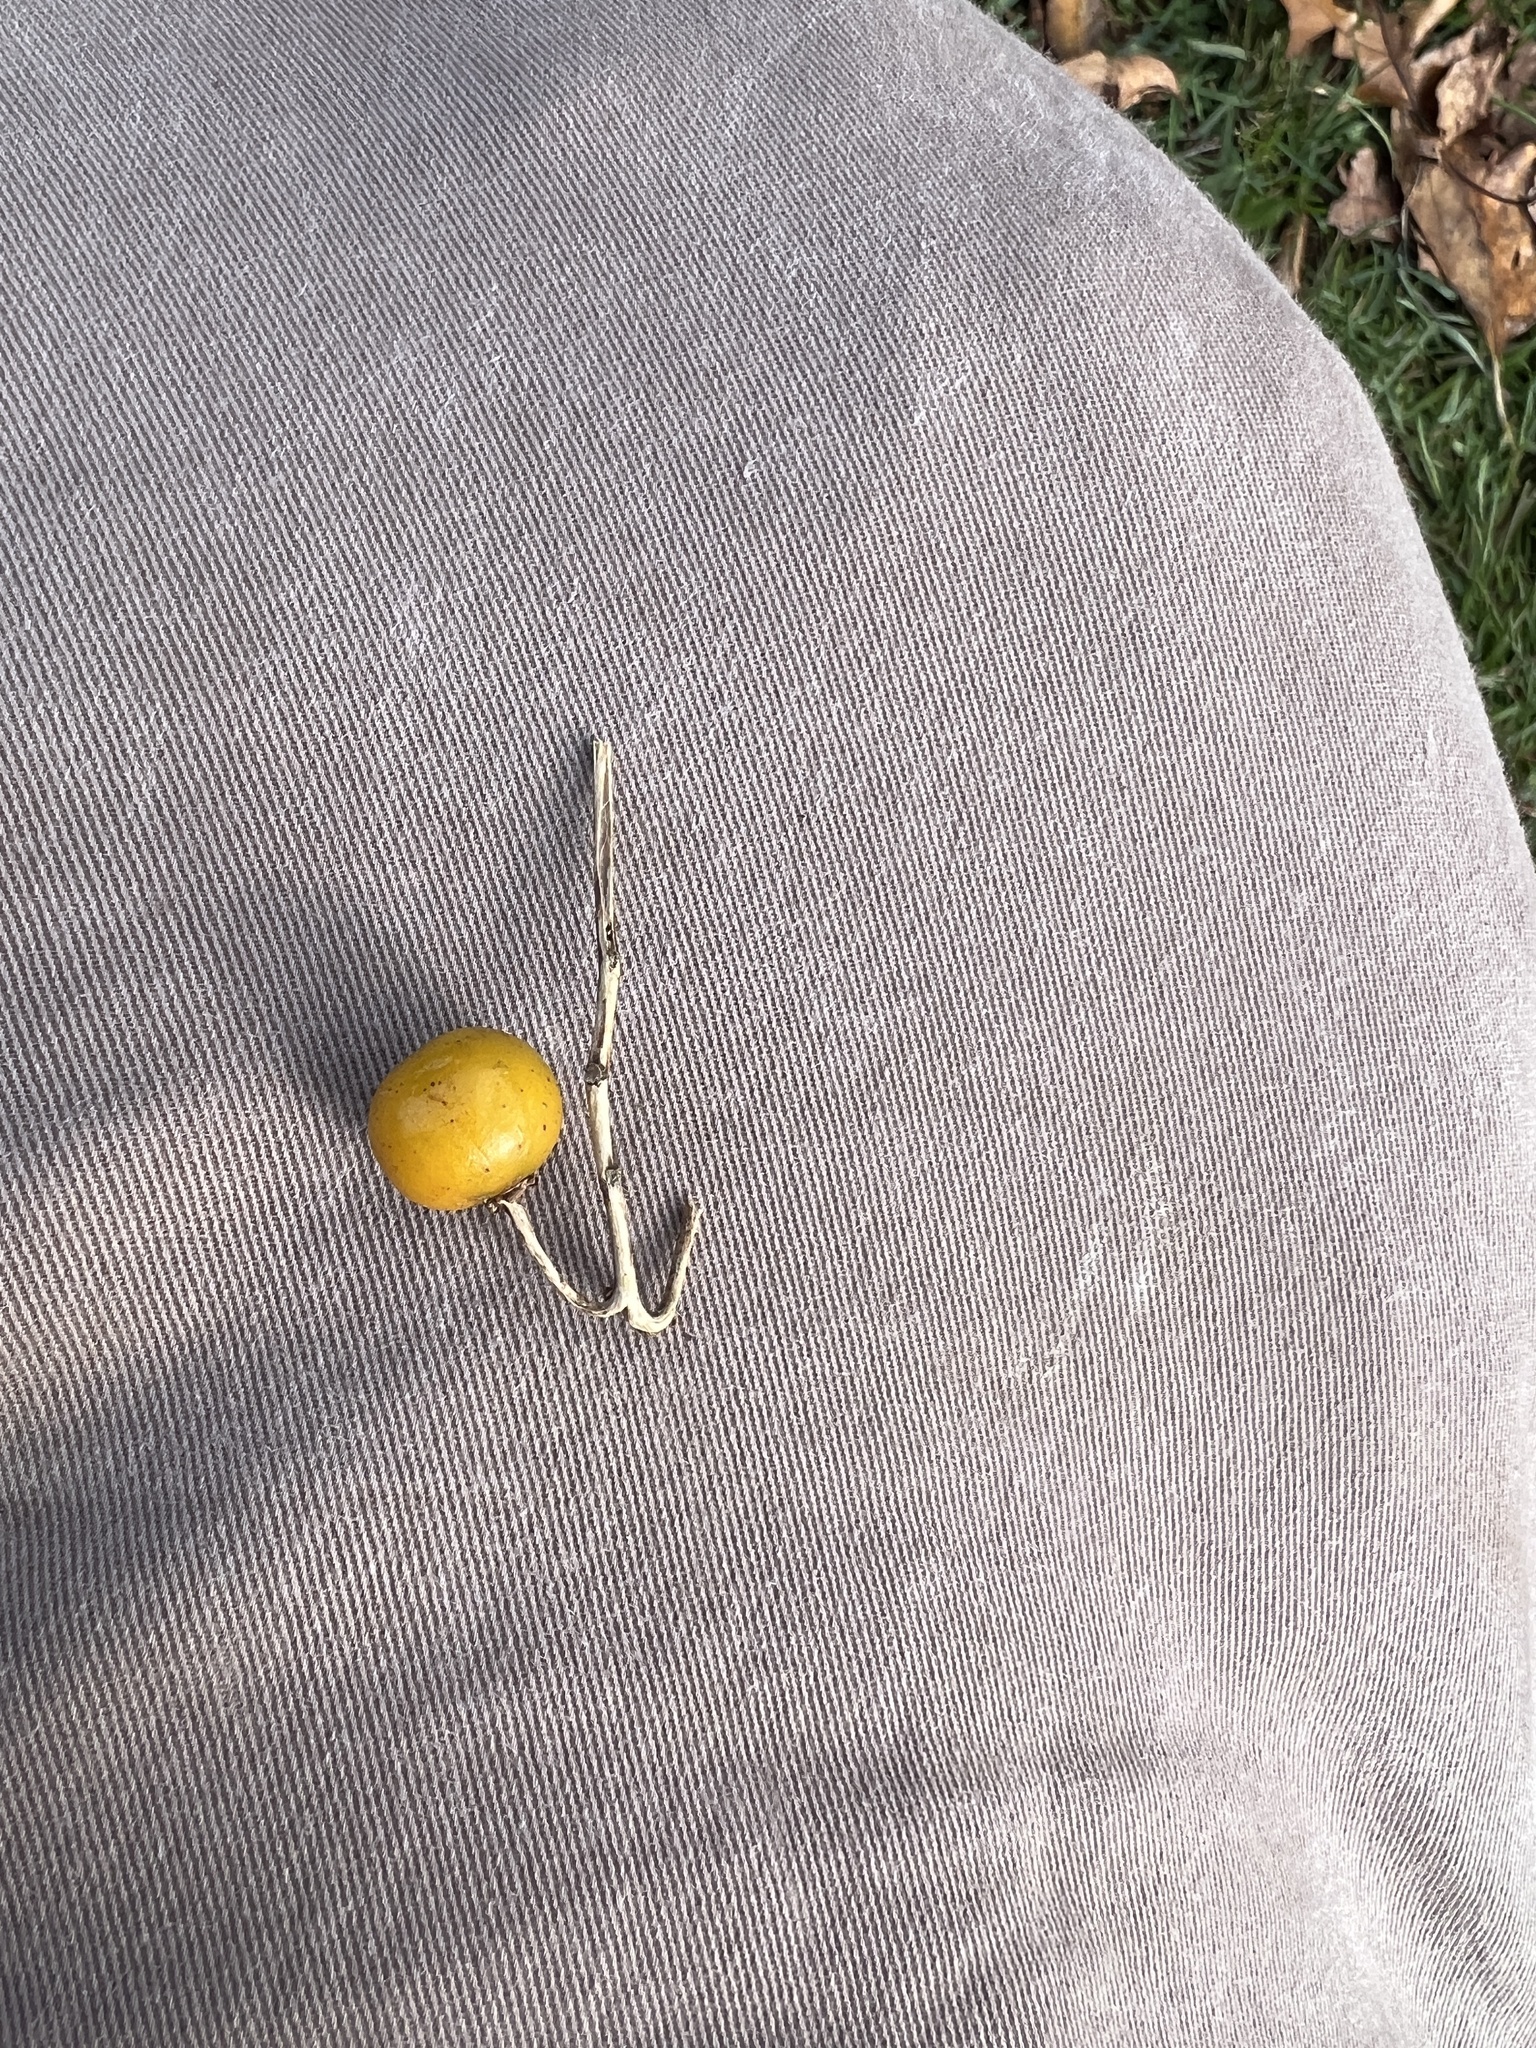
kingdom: Plantae
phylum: Tracheophyta
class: Magnoliopsida
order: Solanales
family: Solanaceae
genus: Solanum
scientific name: Solanum carolinense
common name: Horse-nettle
